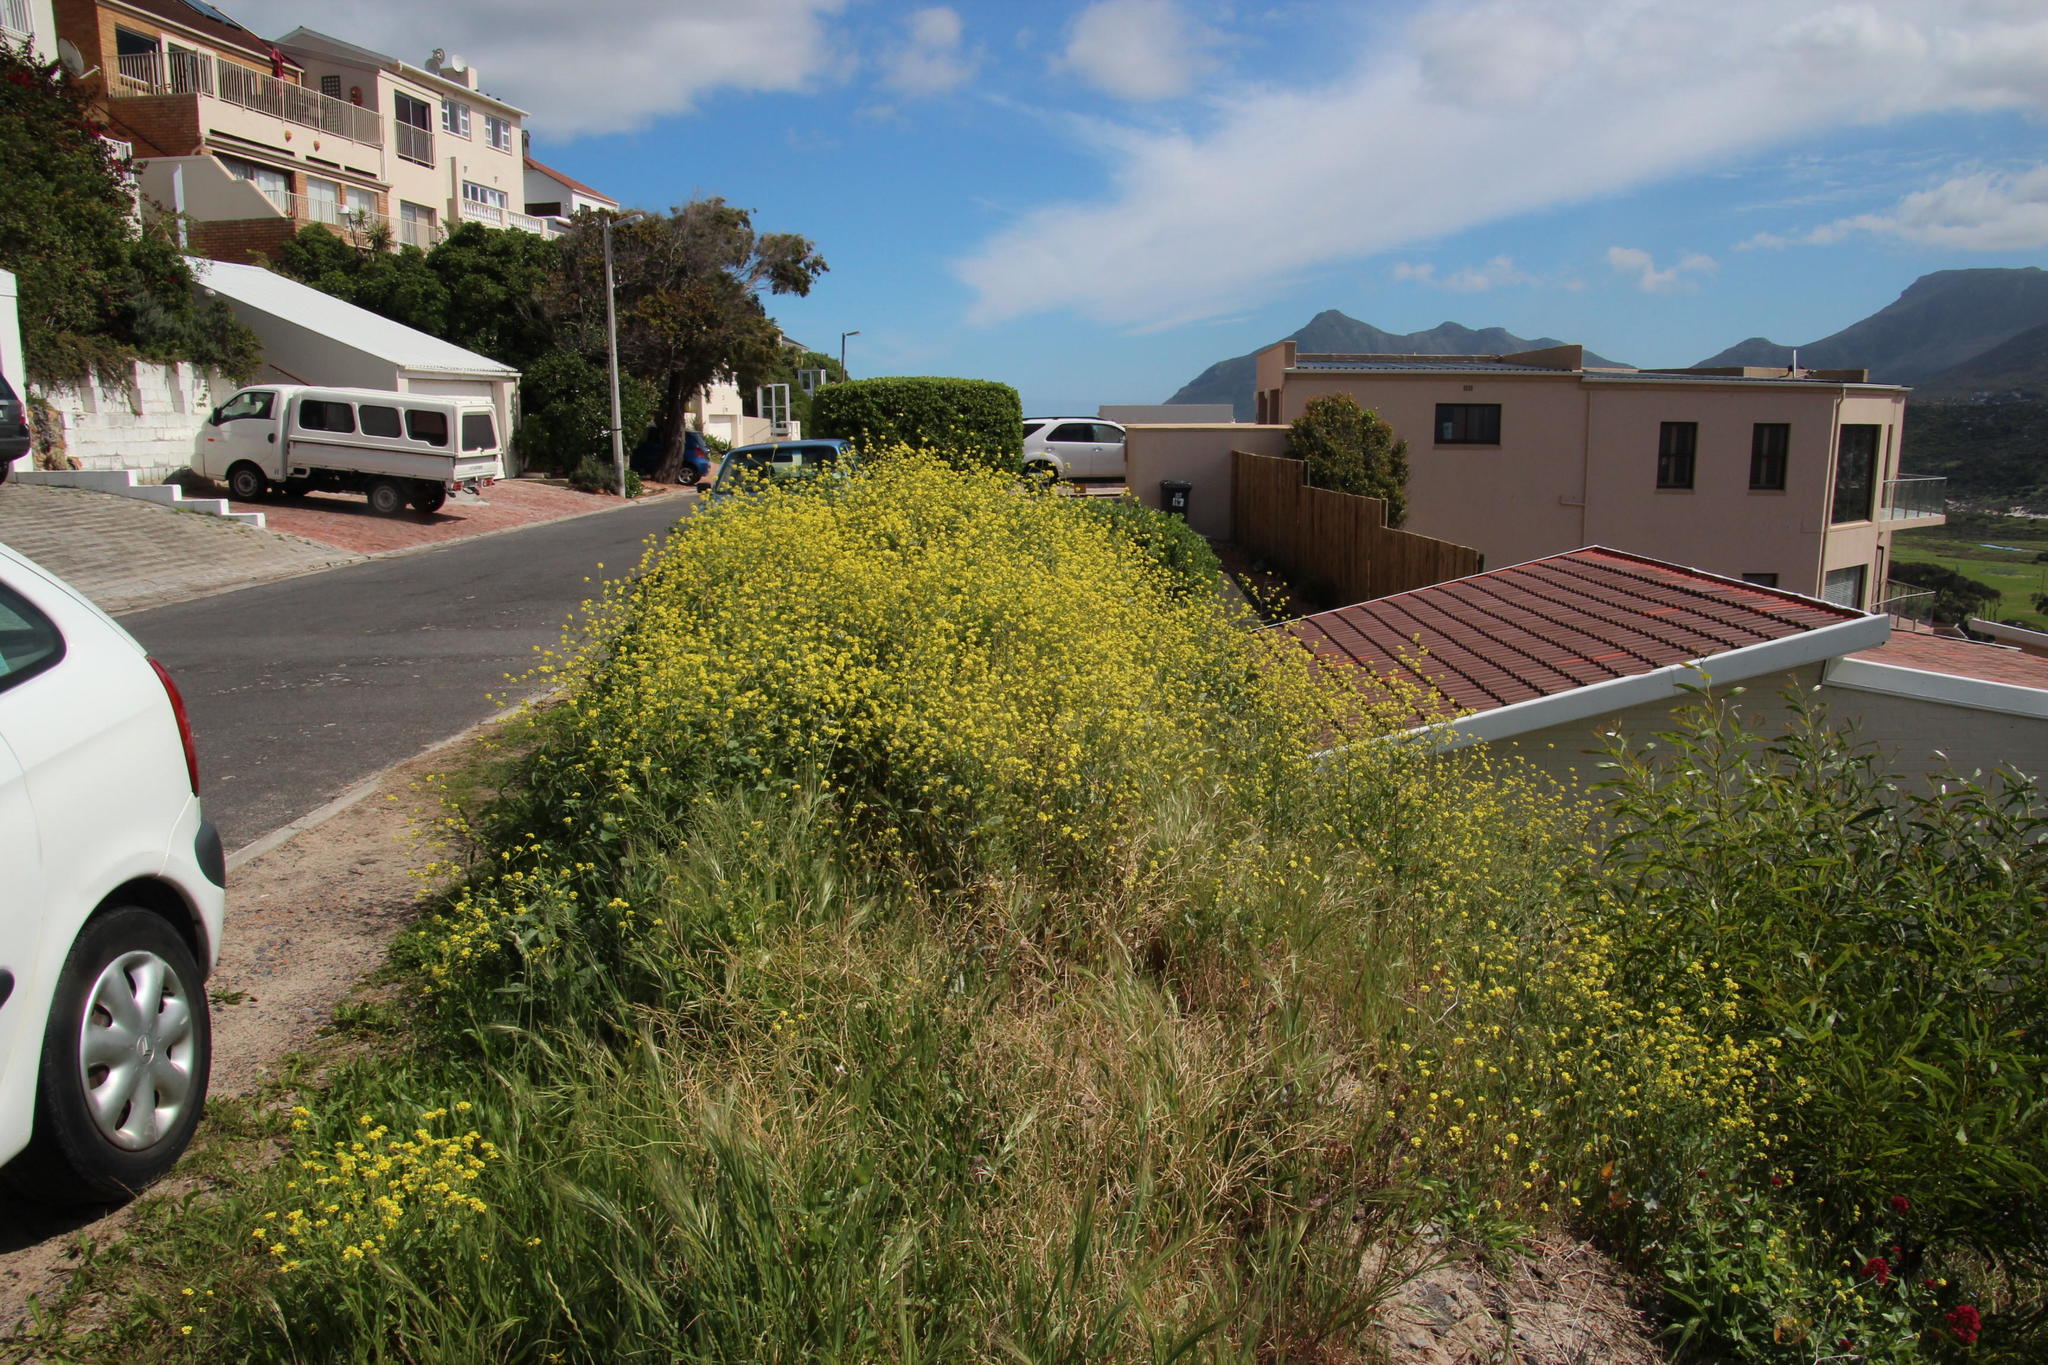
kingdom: Plantae
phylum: Tracheophyta
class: Magnoliopsida
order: Brassicales
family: Brassicaceae
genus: Rapistrum
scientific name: Rapistrum rugosum
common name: Annual bastardcabbage
